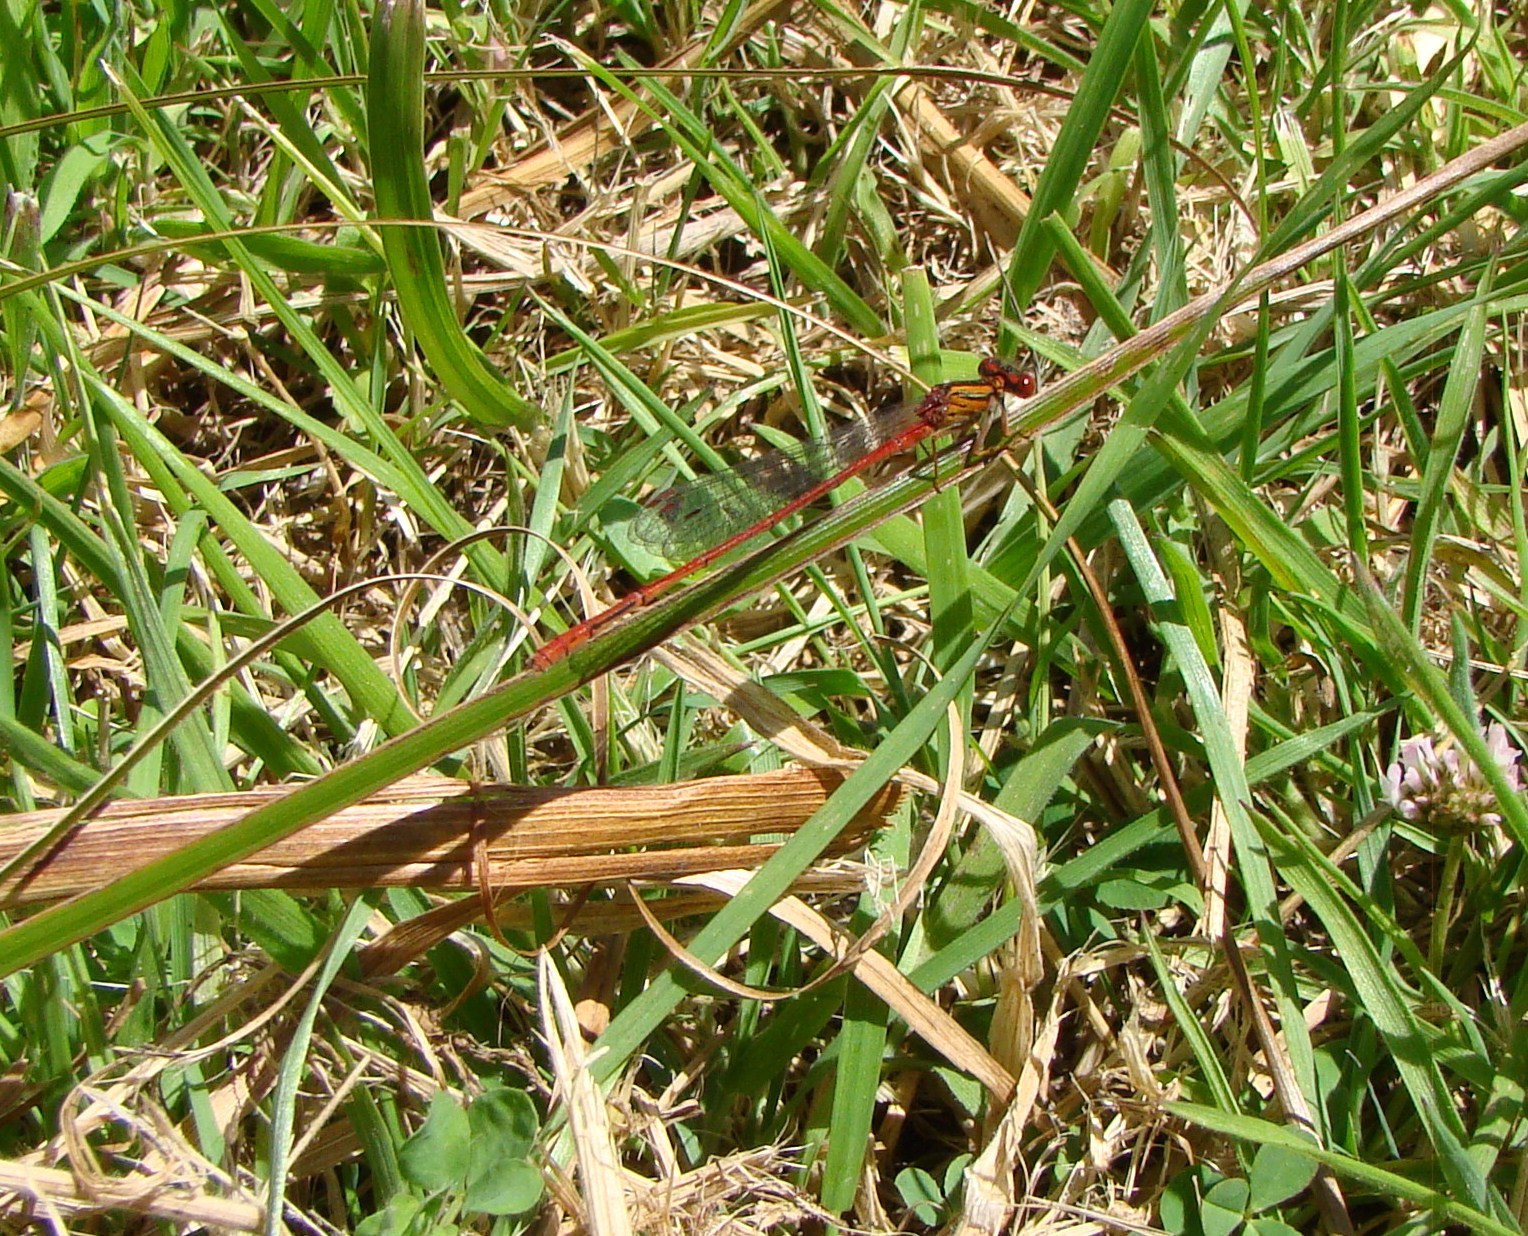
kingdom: Animalia
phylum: Arthropoda
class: Insecta
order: Odonata
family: Coenagrionidae
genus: Xanthocnemis
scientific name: Xanthocnemis zealandica
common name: Common redcoat damselfly
